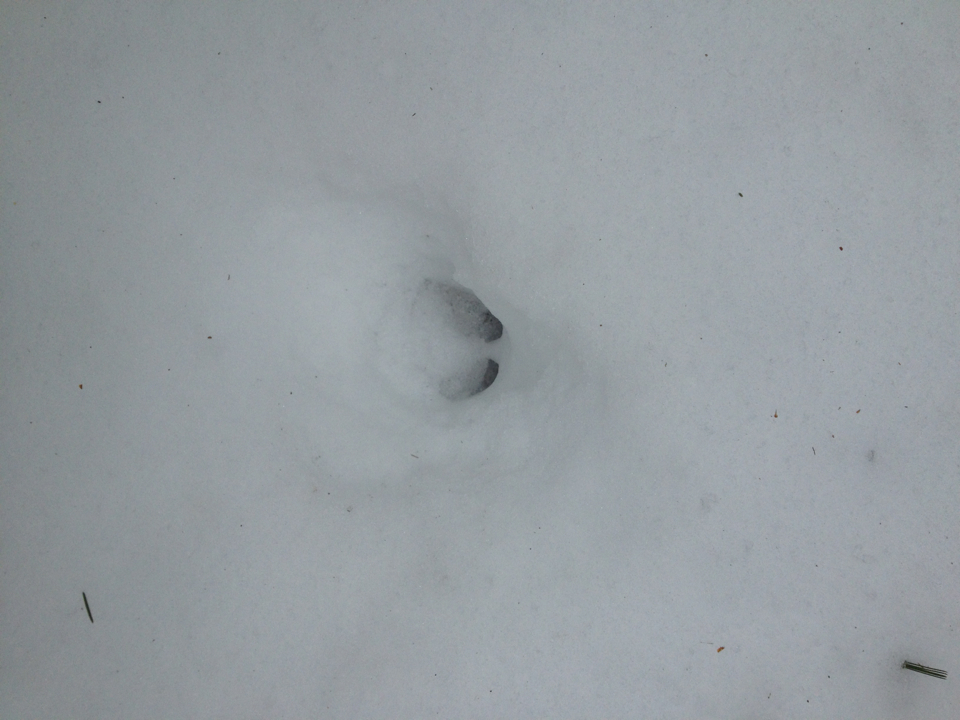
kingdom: Animalia
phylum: Chordata
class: Mammalia
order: Artiodactyla
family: Cervidae
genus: Odocoileus
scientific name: Odocoileus virginianus
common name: White-tailed deer
